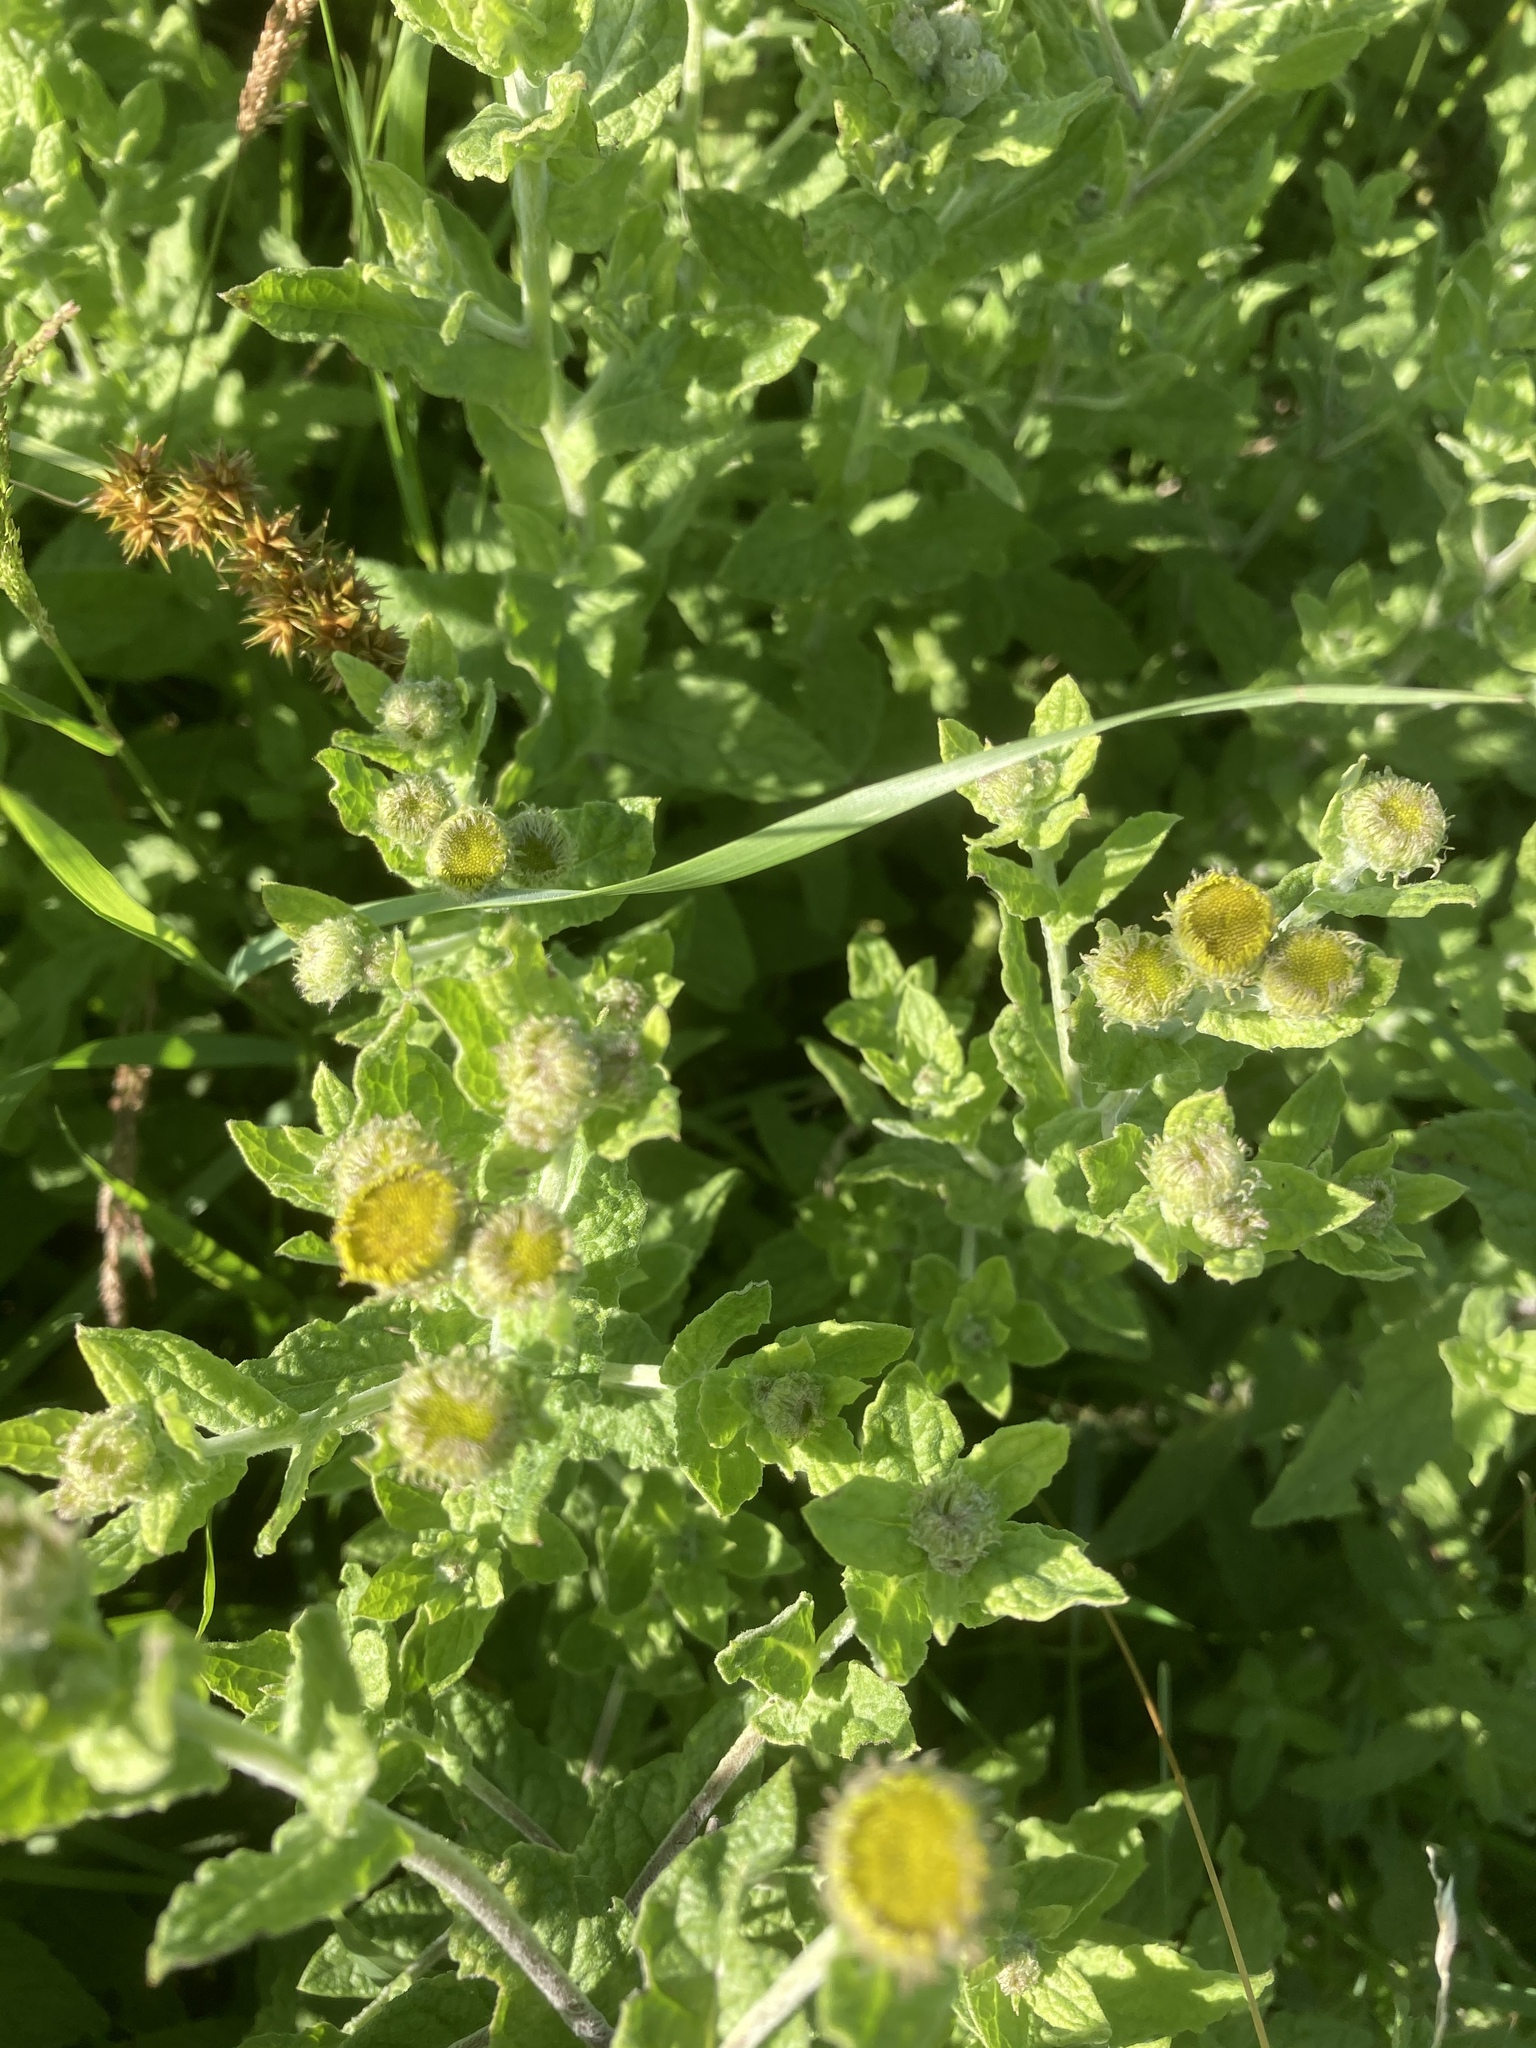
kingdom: Plantae
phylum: Tracheophyta
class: Magnoliopsida
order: Asterales
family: Asteraceae
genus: Pulicaria
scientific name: Pulicaria dysenterica
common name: Common fleabane
